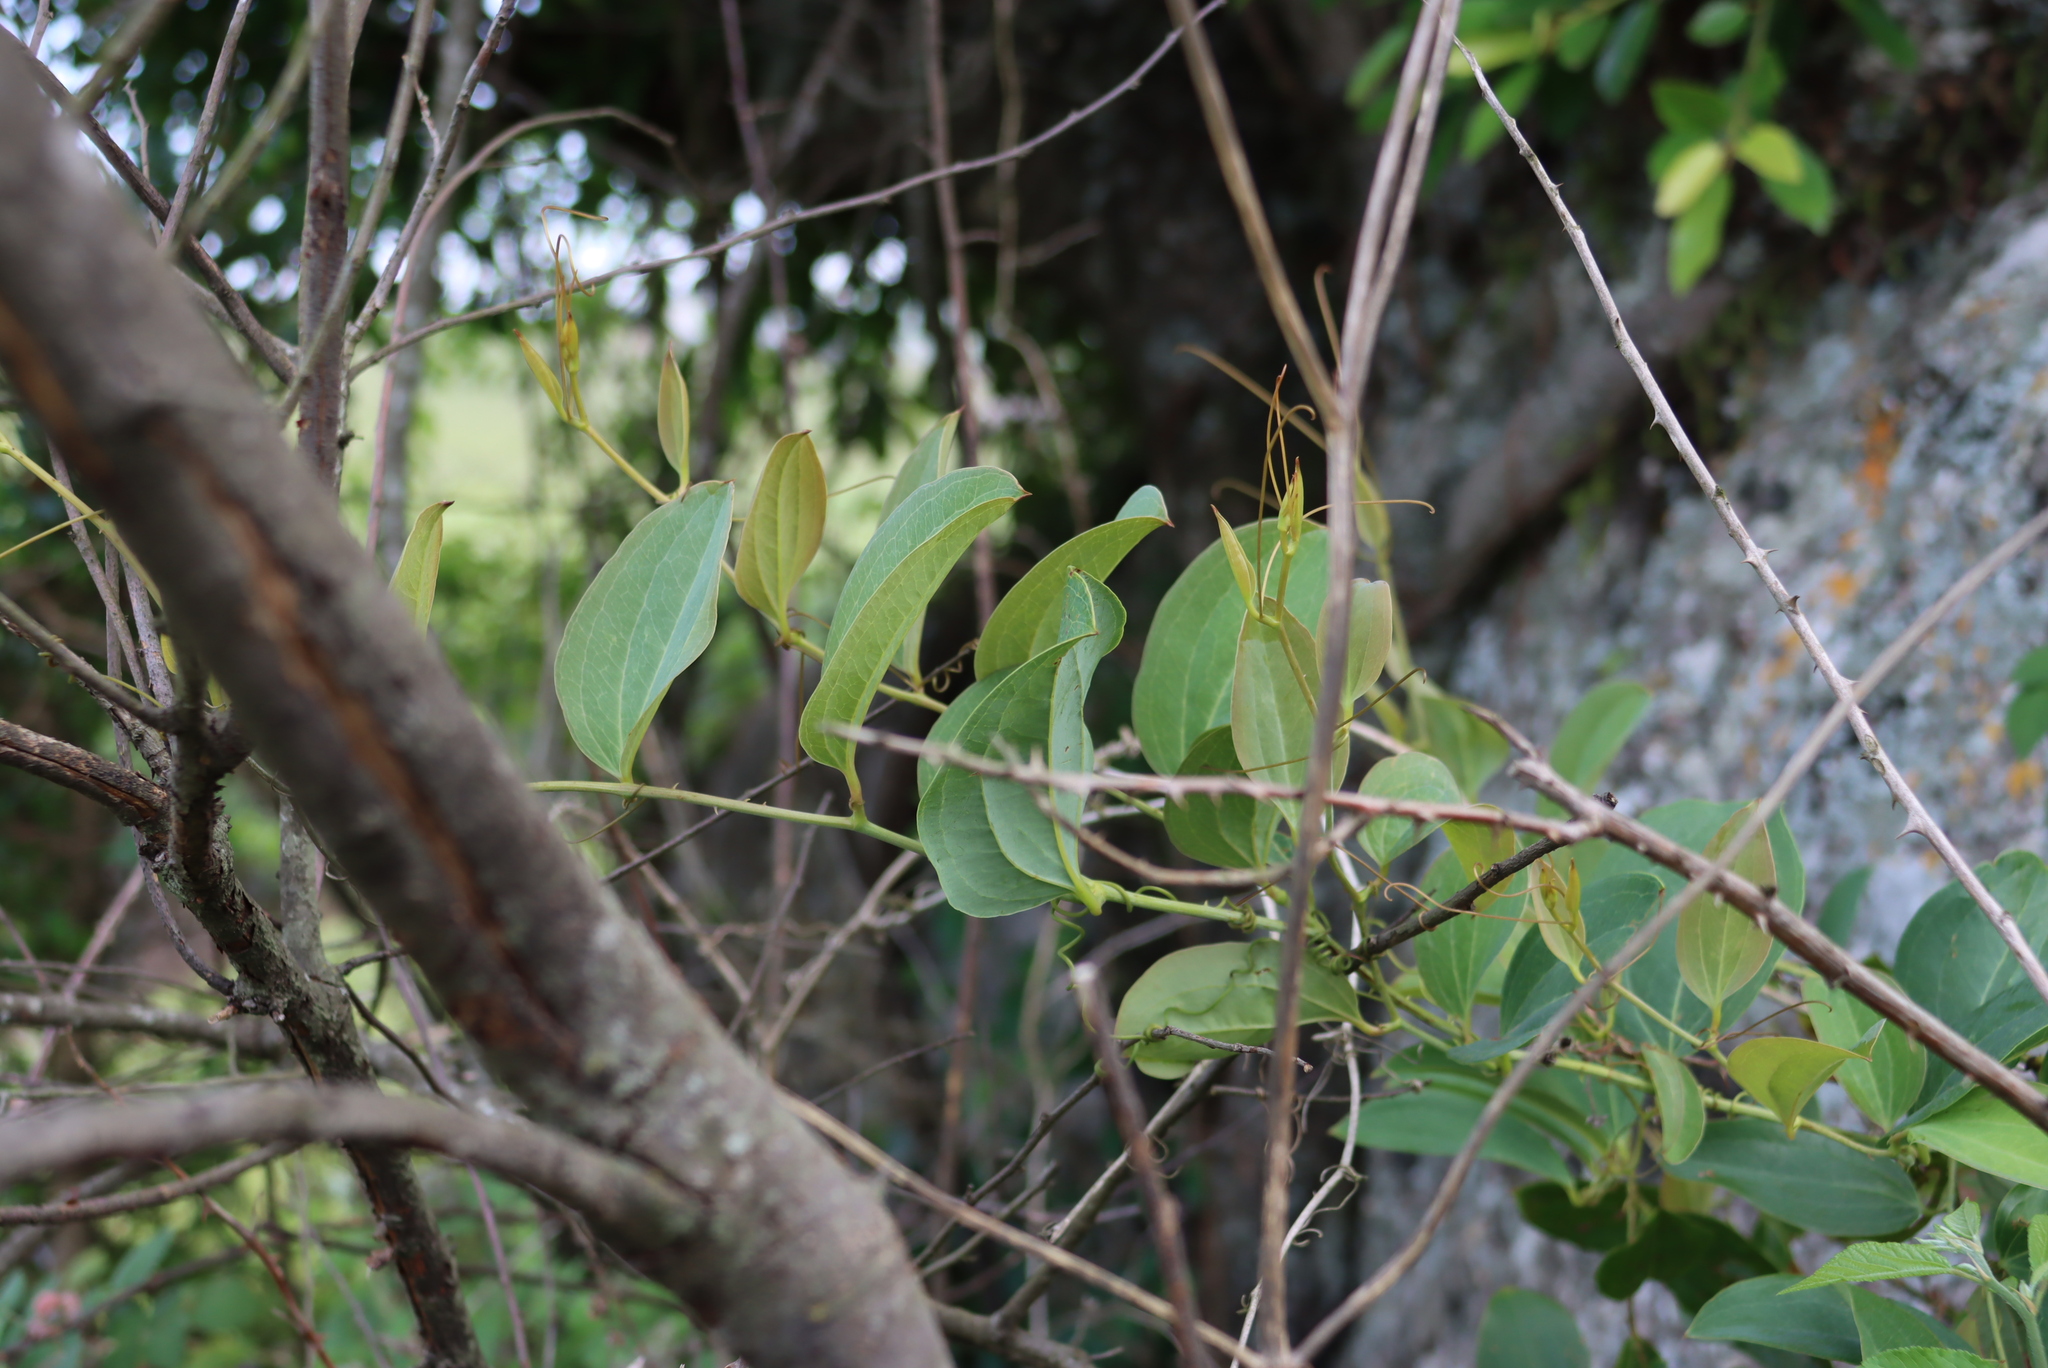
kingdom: Plantae
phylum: Tracheophyta
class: Liliopsida
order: Liliales
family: Smilacaceae
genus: Smilax
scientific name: Smilax anceps
